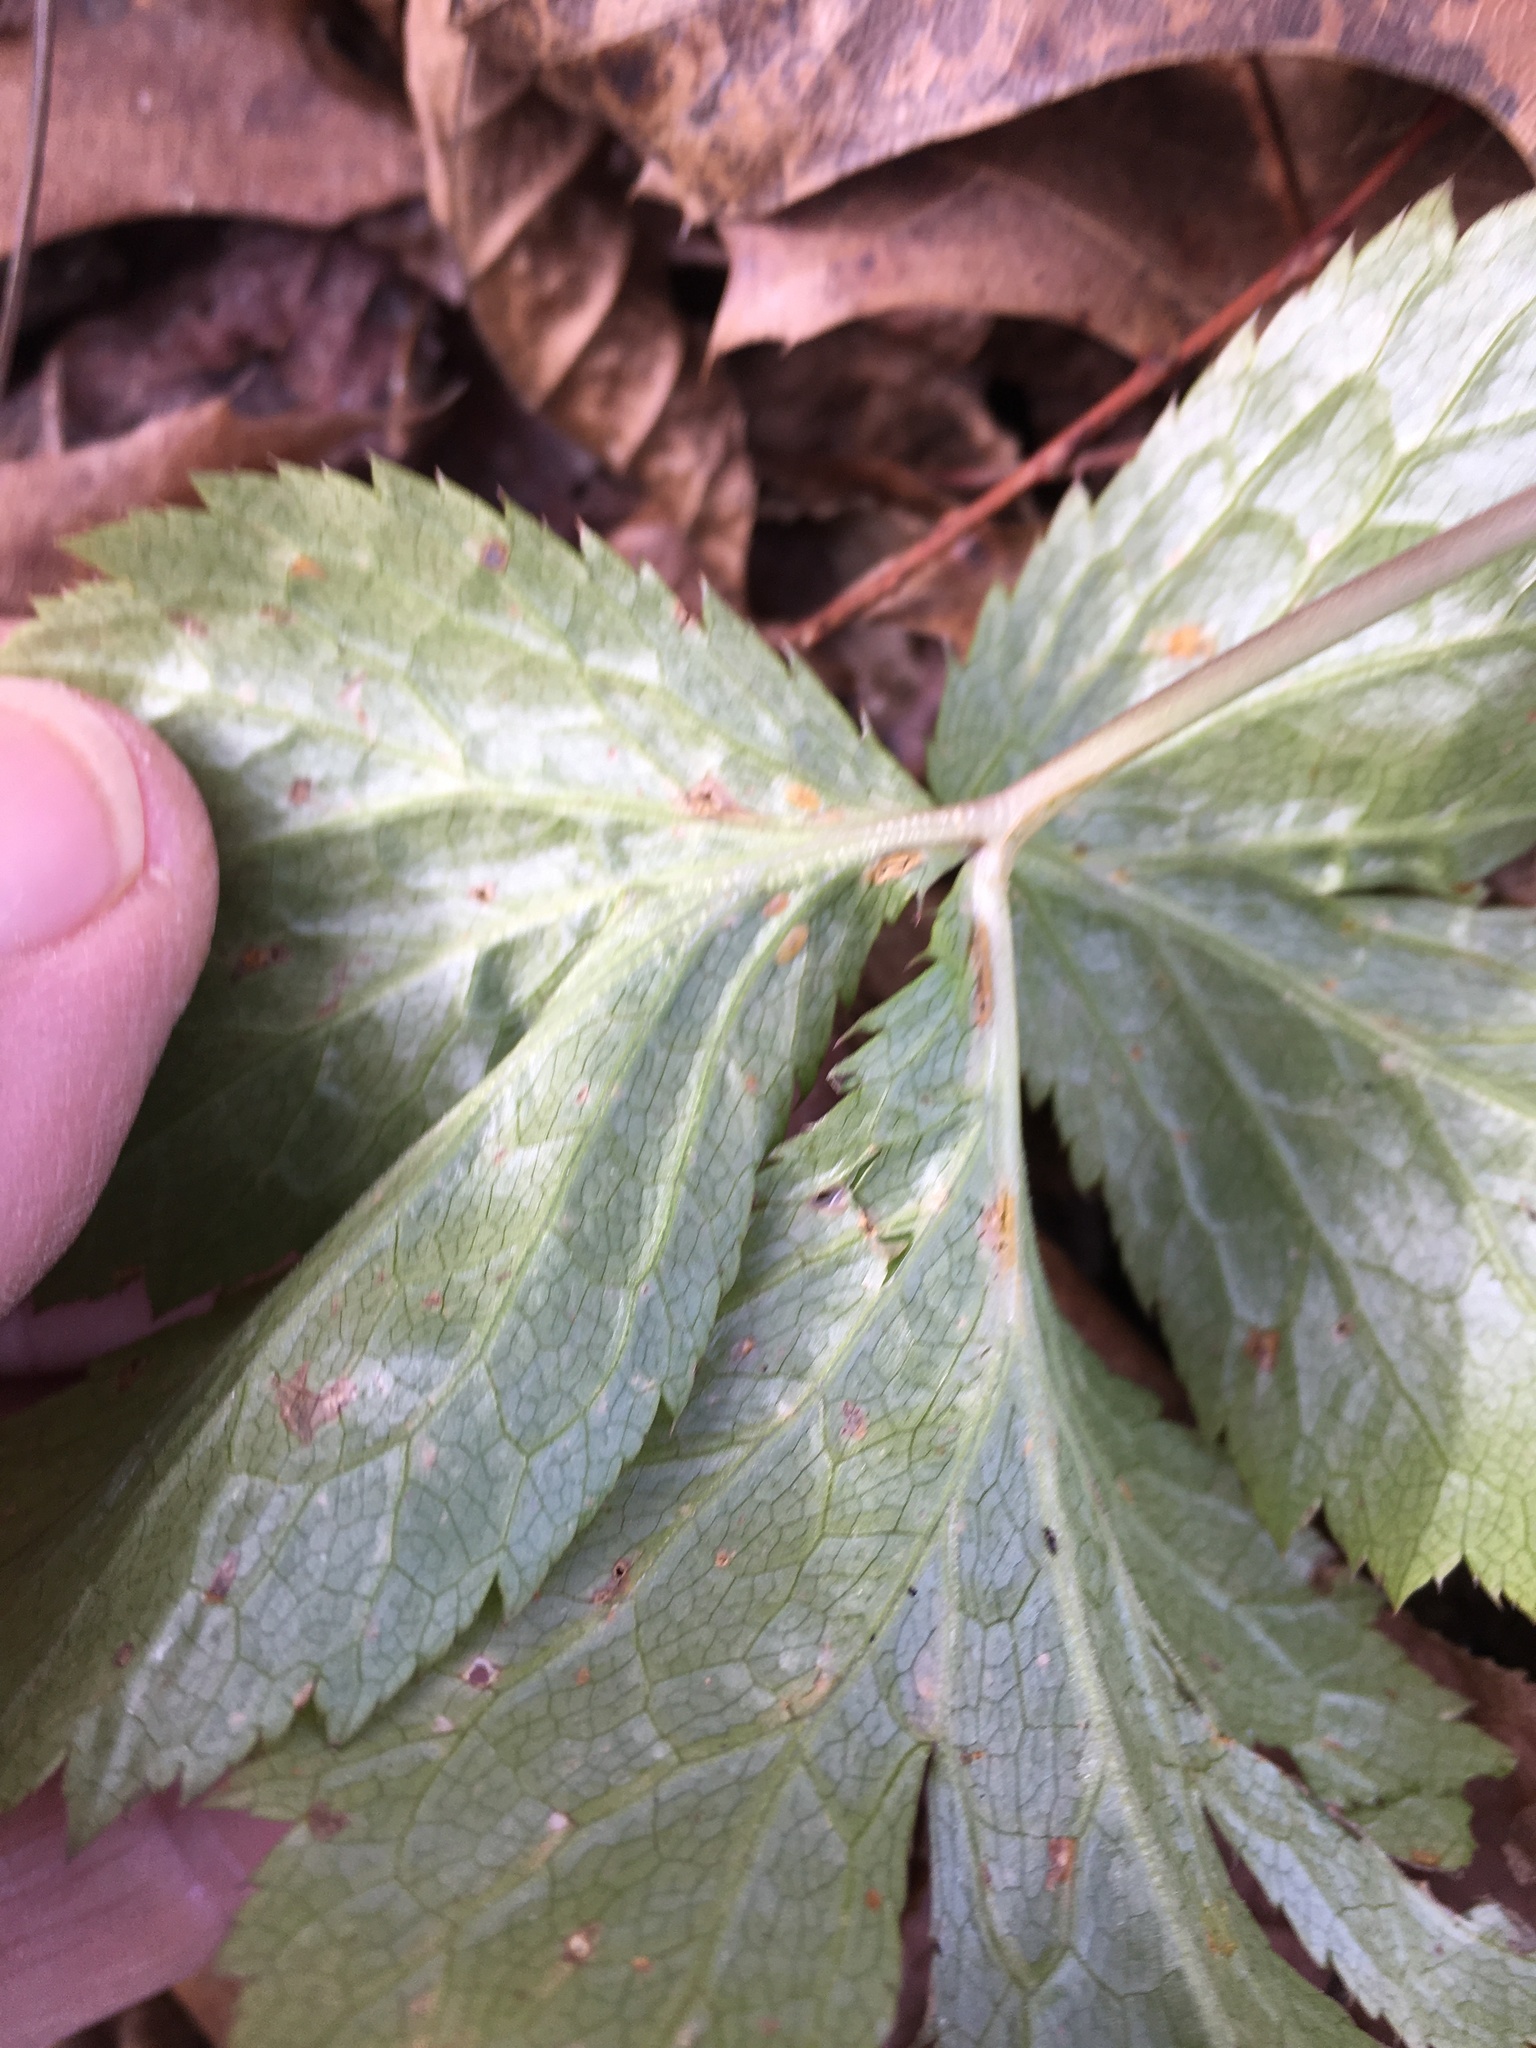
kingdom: Plantae
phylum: Tracheophyta
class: Magnoliopsida
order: Rosales
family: Rosaceae
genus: Geum
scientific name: Geum canadense
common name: White avens
